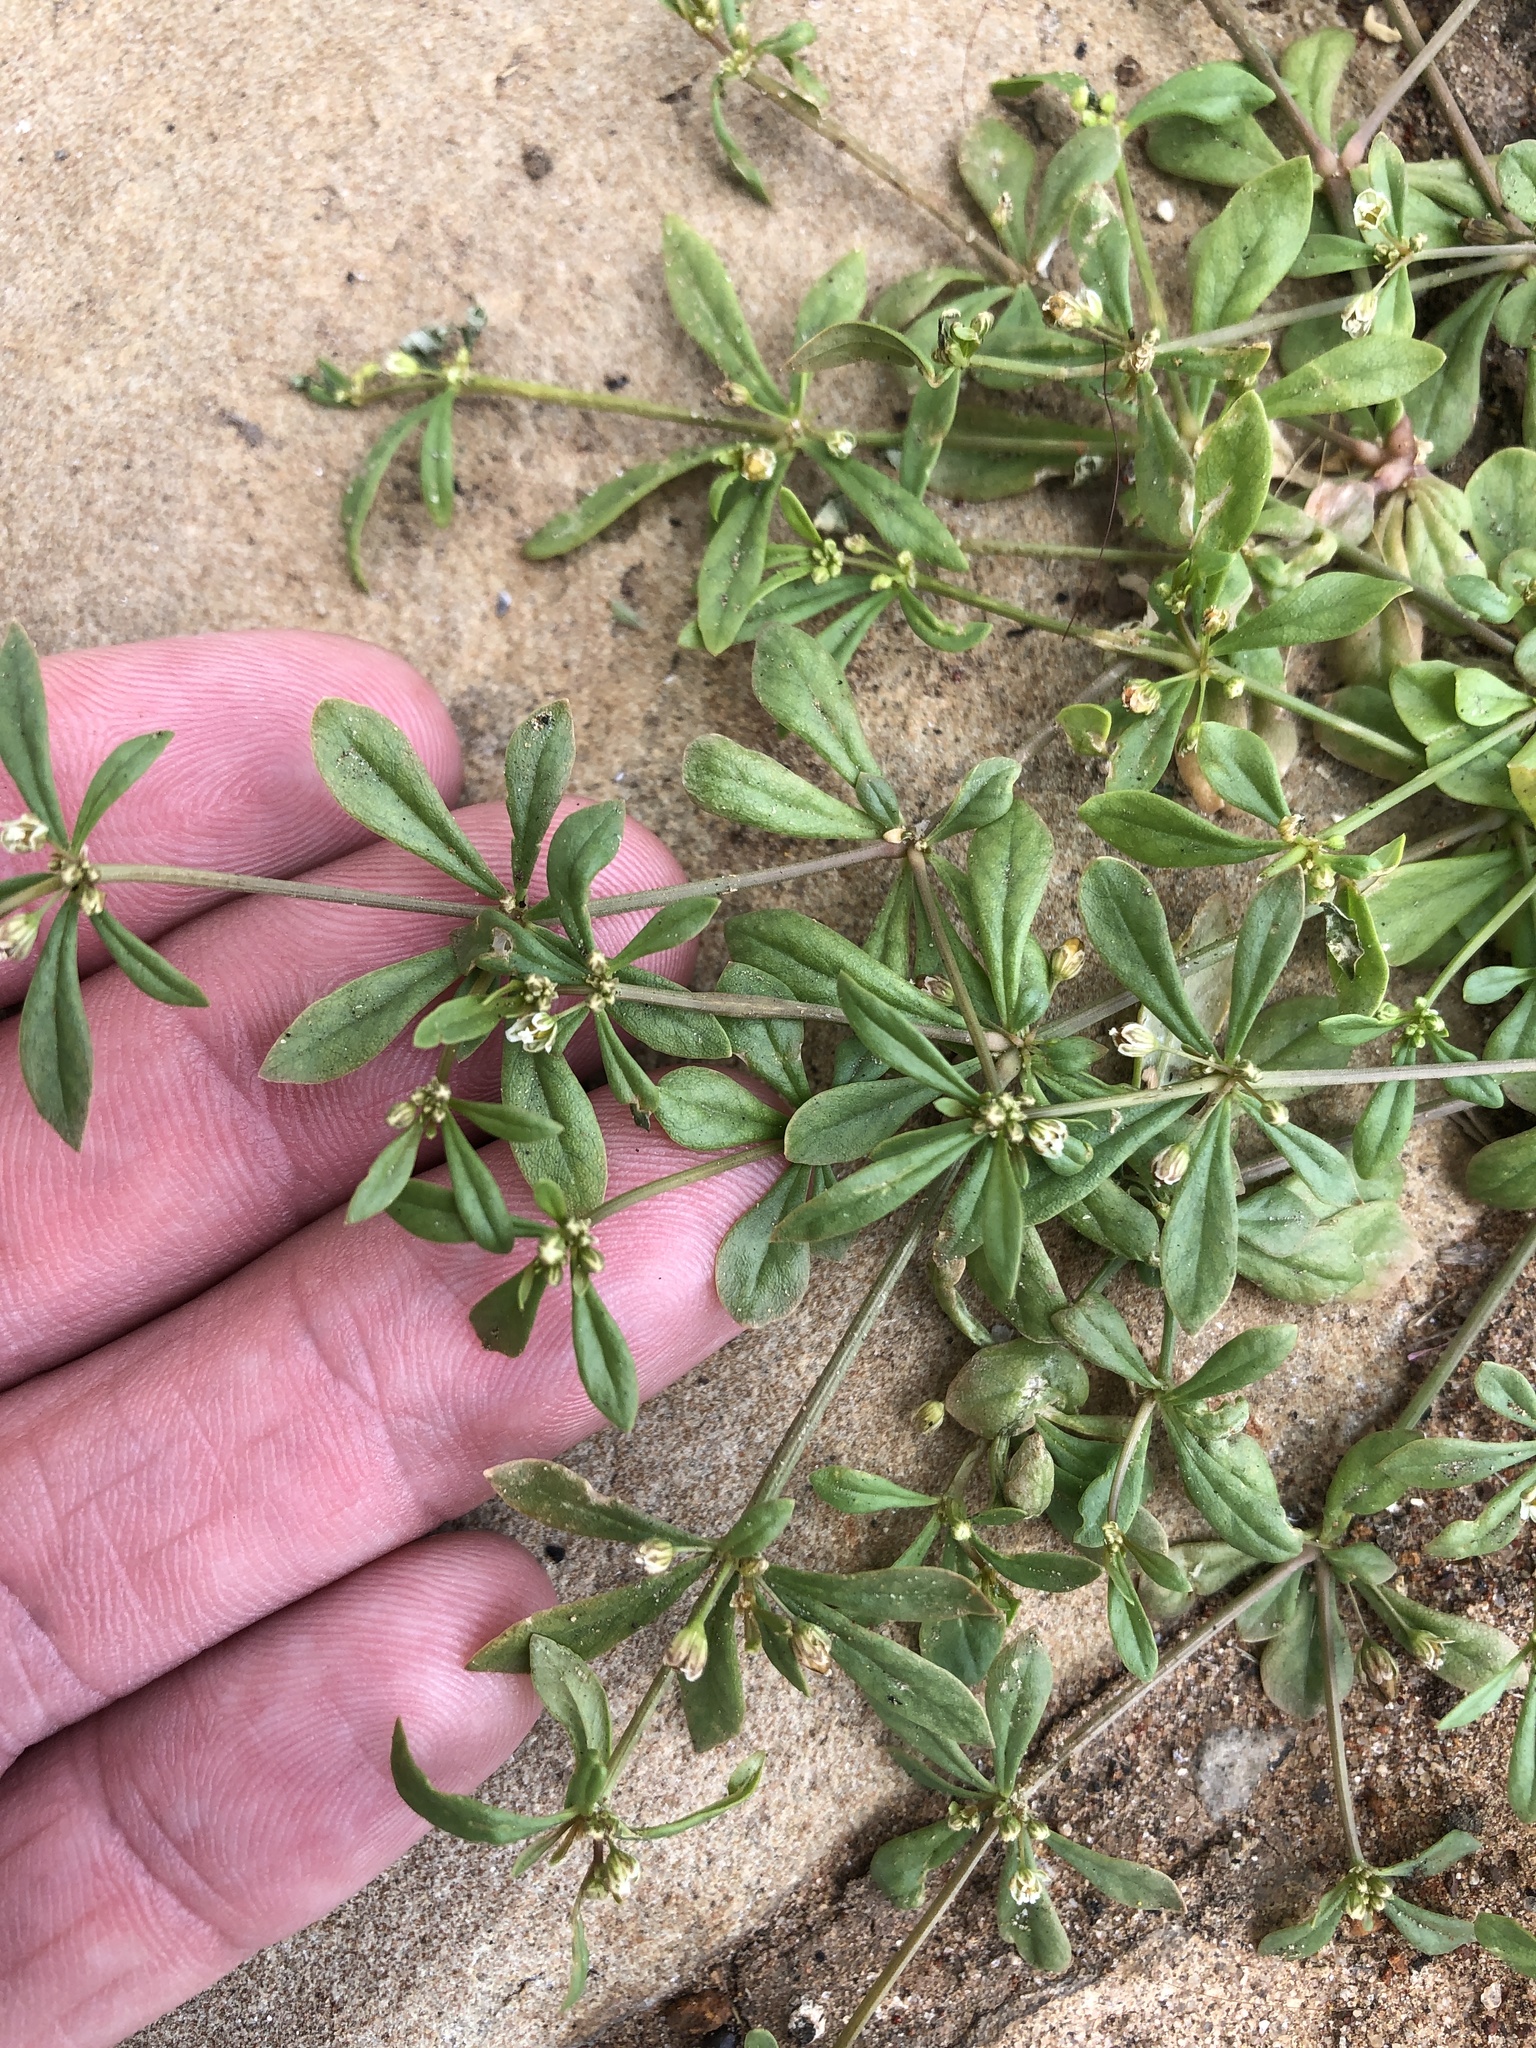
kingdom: Plantae
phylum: Tracheophyta
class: Magnoliopsida
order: Caryophyllales
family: Molluginaceae
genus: Mollugo
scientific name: Mollugo verticillata
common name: Green carpetweed
